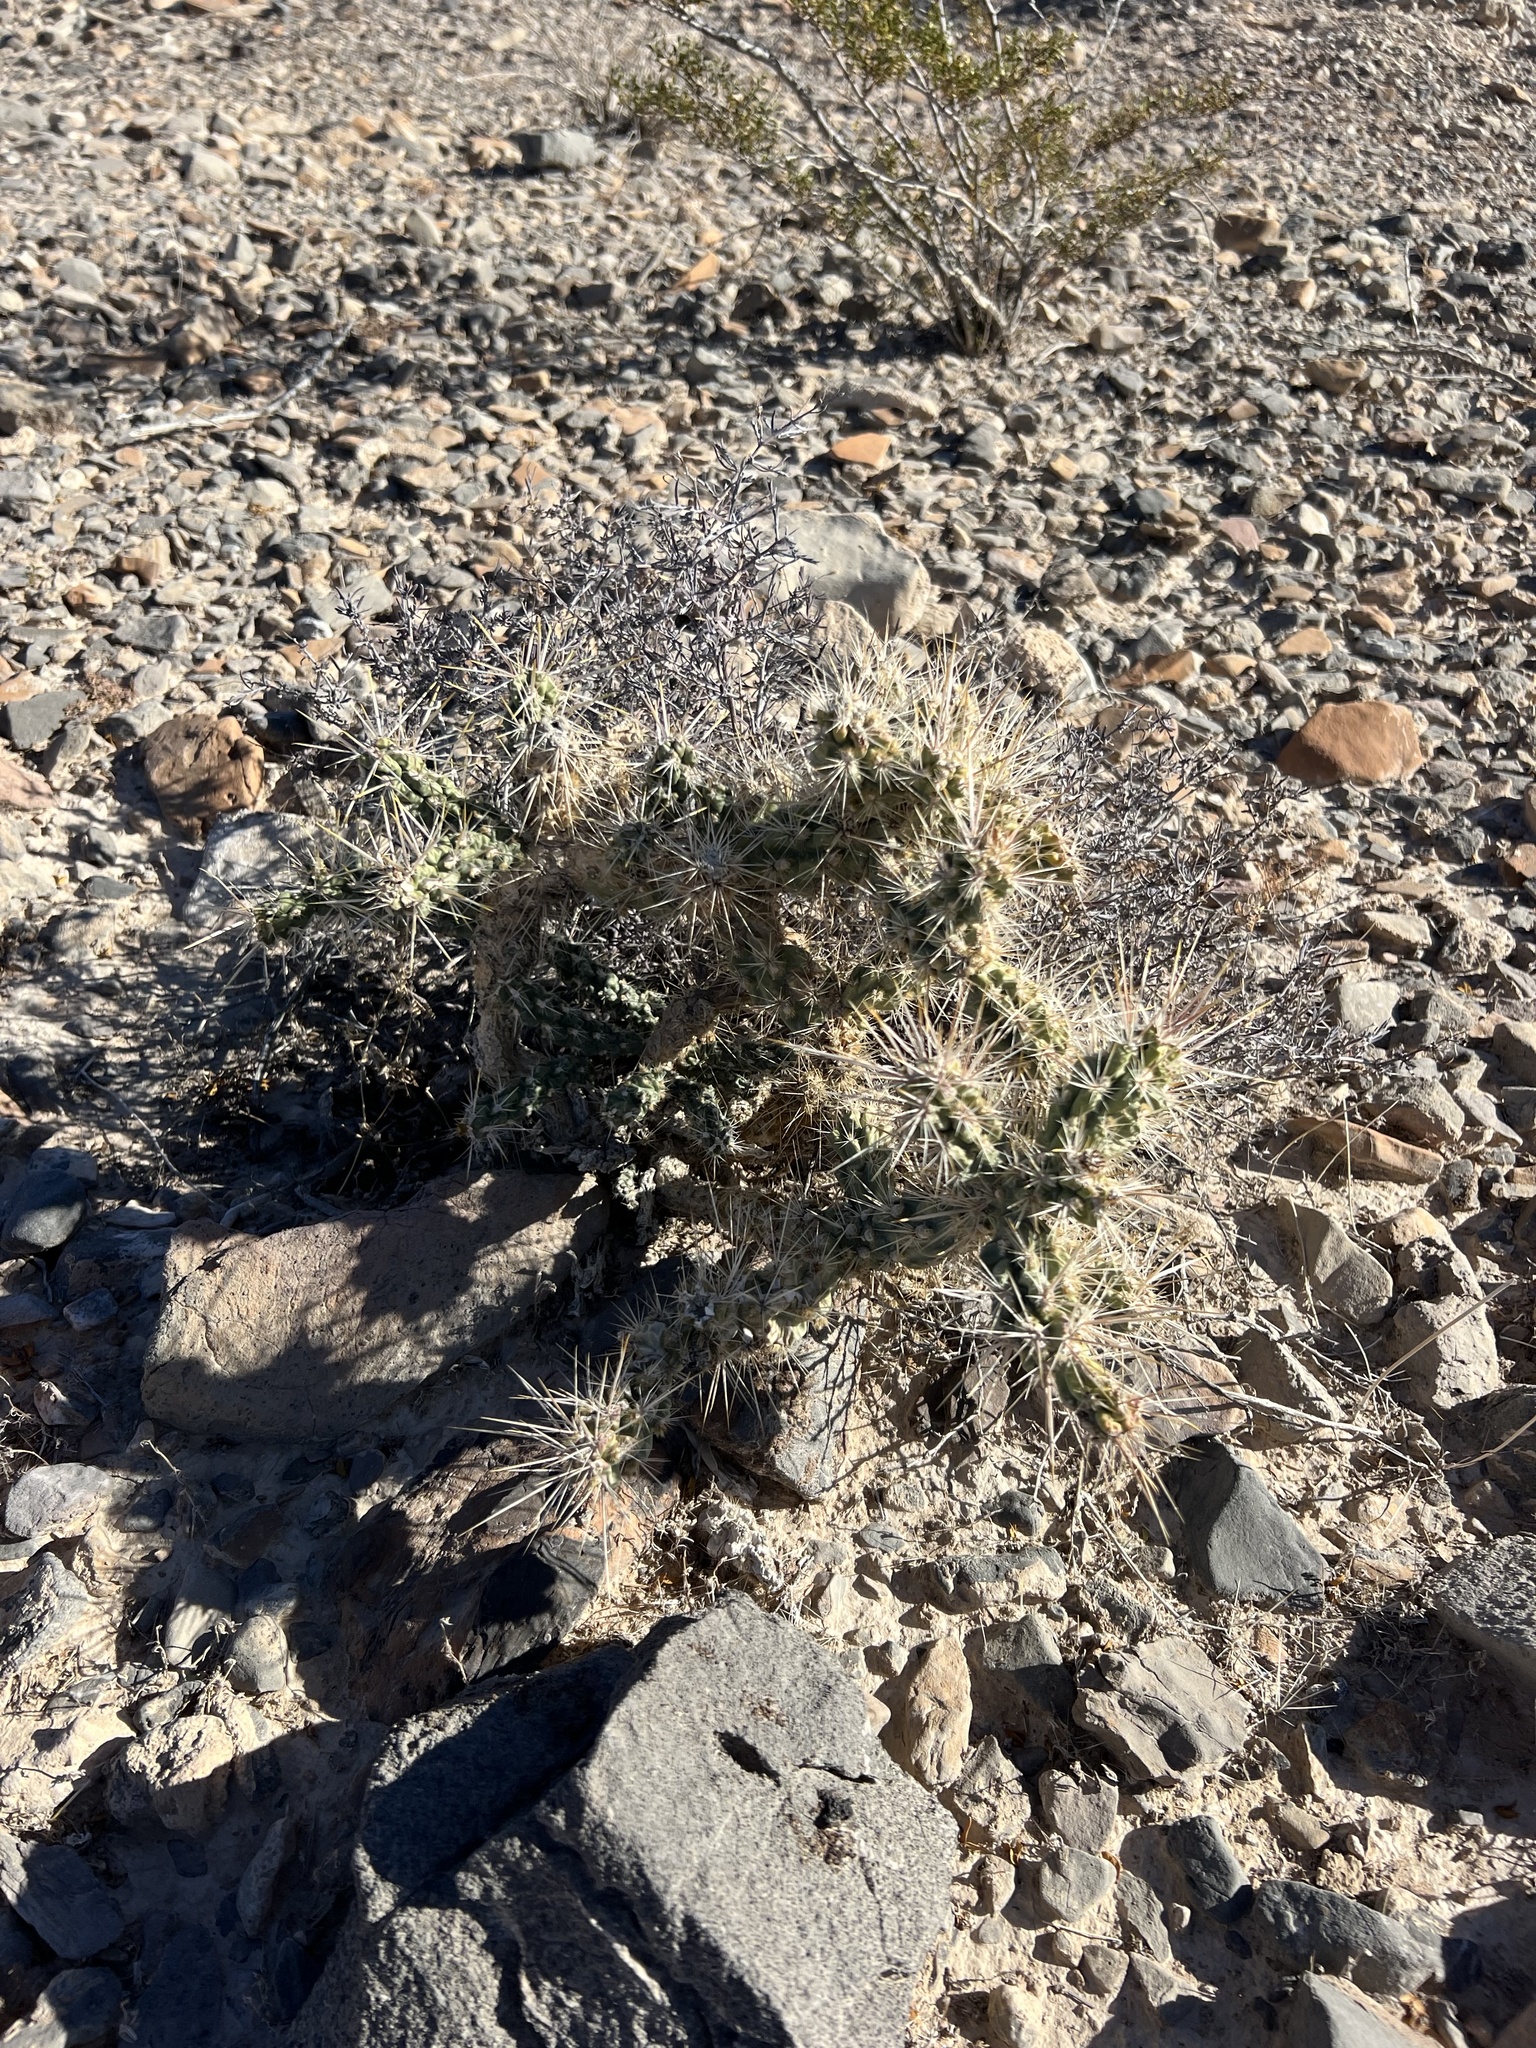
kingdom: Plantae
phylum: Tracheophyta
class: Magnoliopsida
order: Caryophyllales
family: Cactaceae
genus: Cylindropuntia
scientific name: Cylindropuntia echinocarpa
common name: Ground cholla
